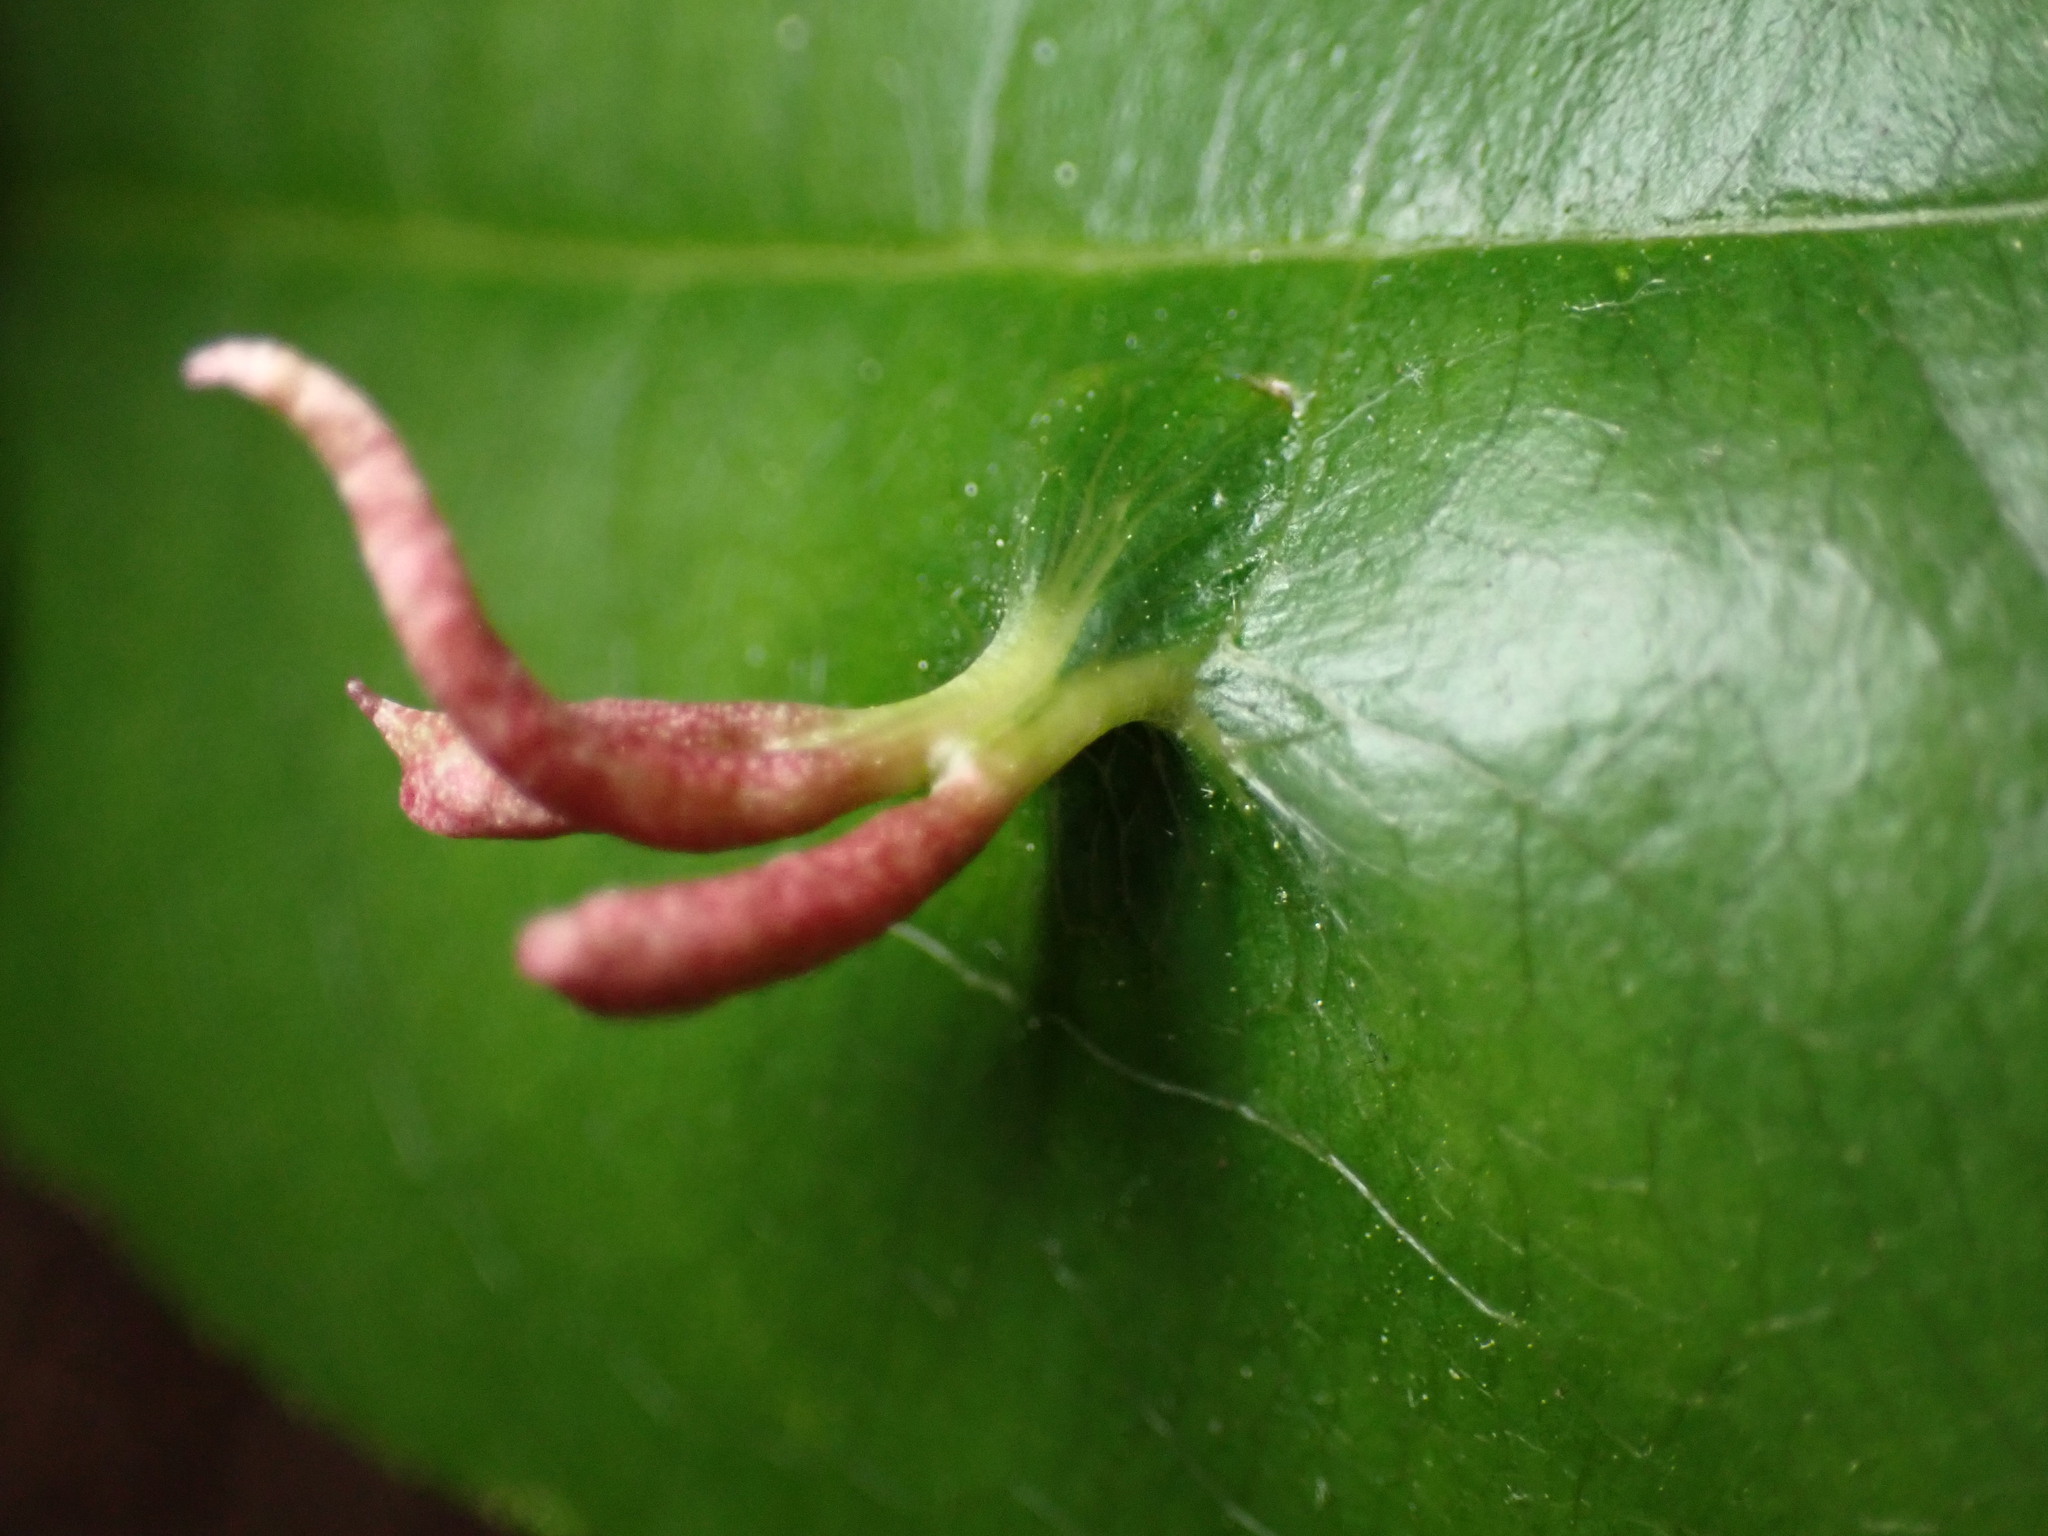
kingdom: Animalia
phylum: Arthropoda
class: Arachnida
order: Trombidiformes
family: Eriophyidae
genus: Eriophyes
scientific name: Eriophyes
